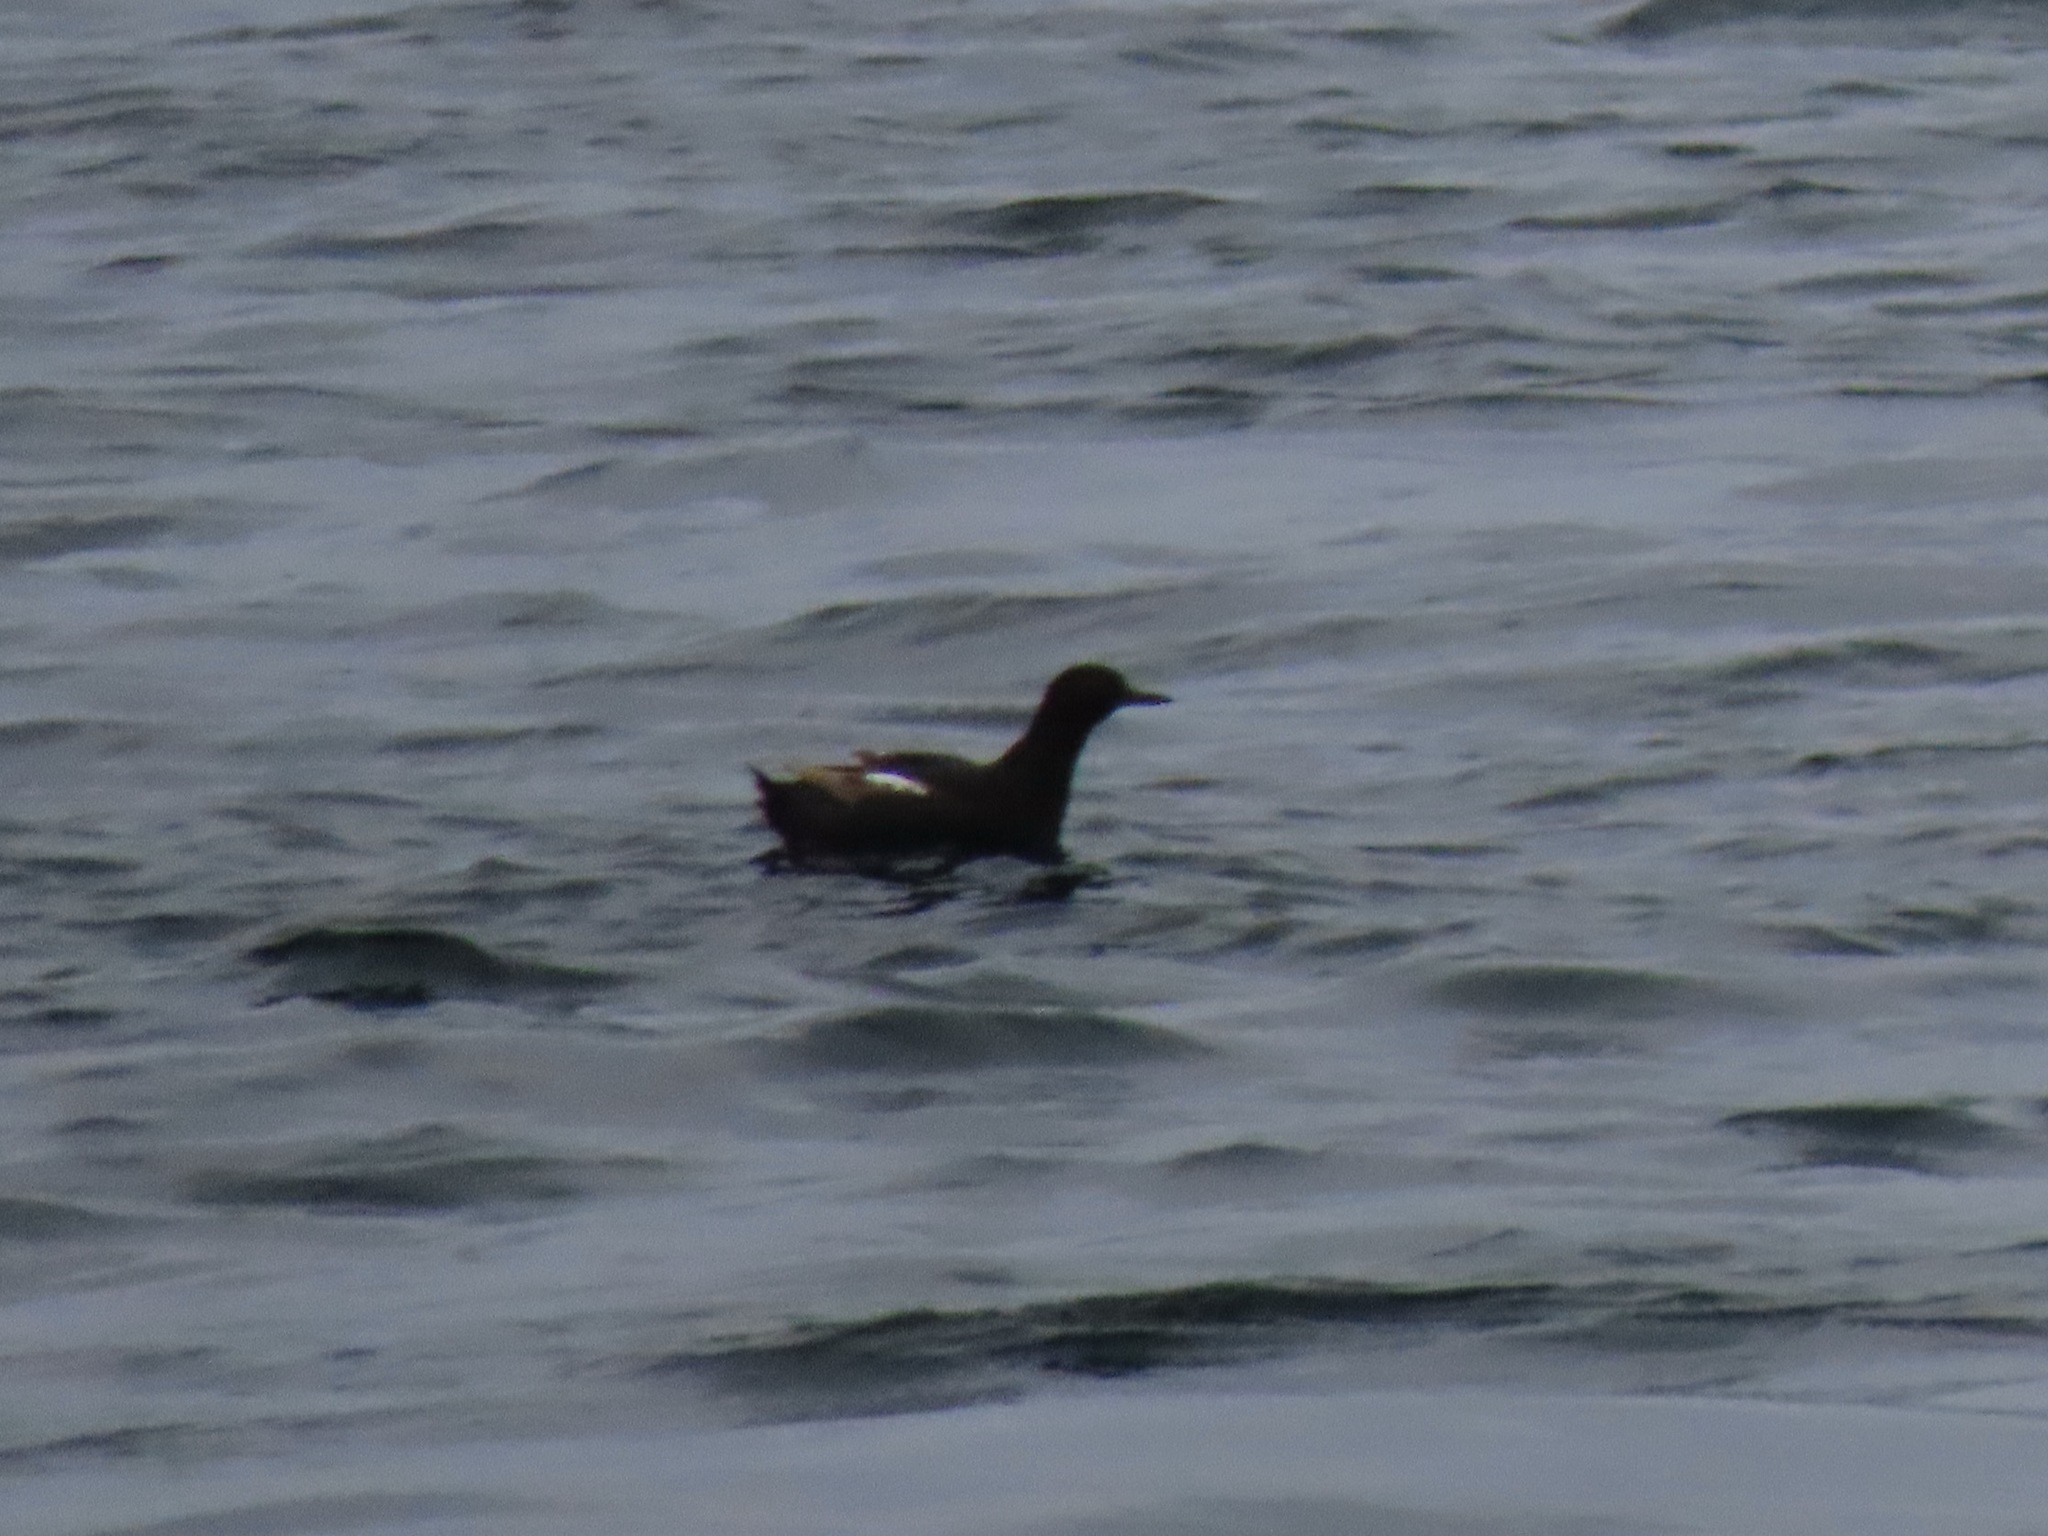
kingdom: Animalia
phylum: Chordata
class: Aves
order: Charadriiformes
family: Alcidae
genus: Cepphus
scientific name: Cepphus columba
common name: Pigeon guillemot
